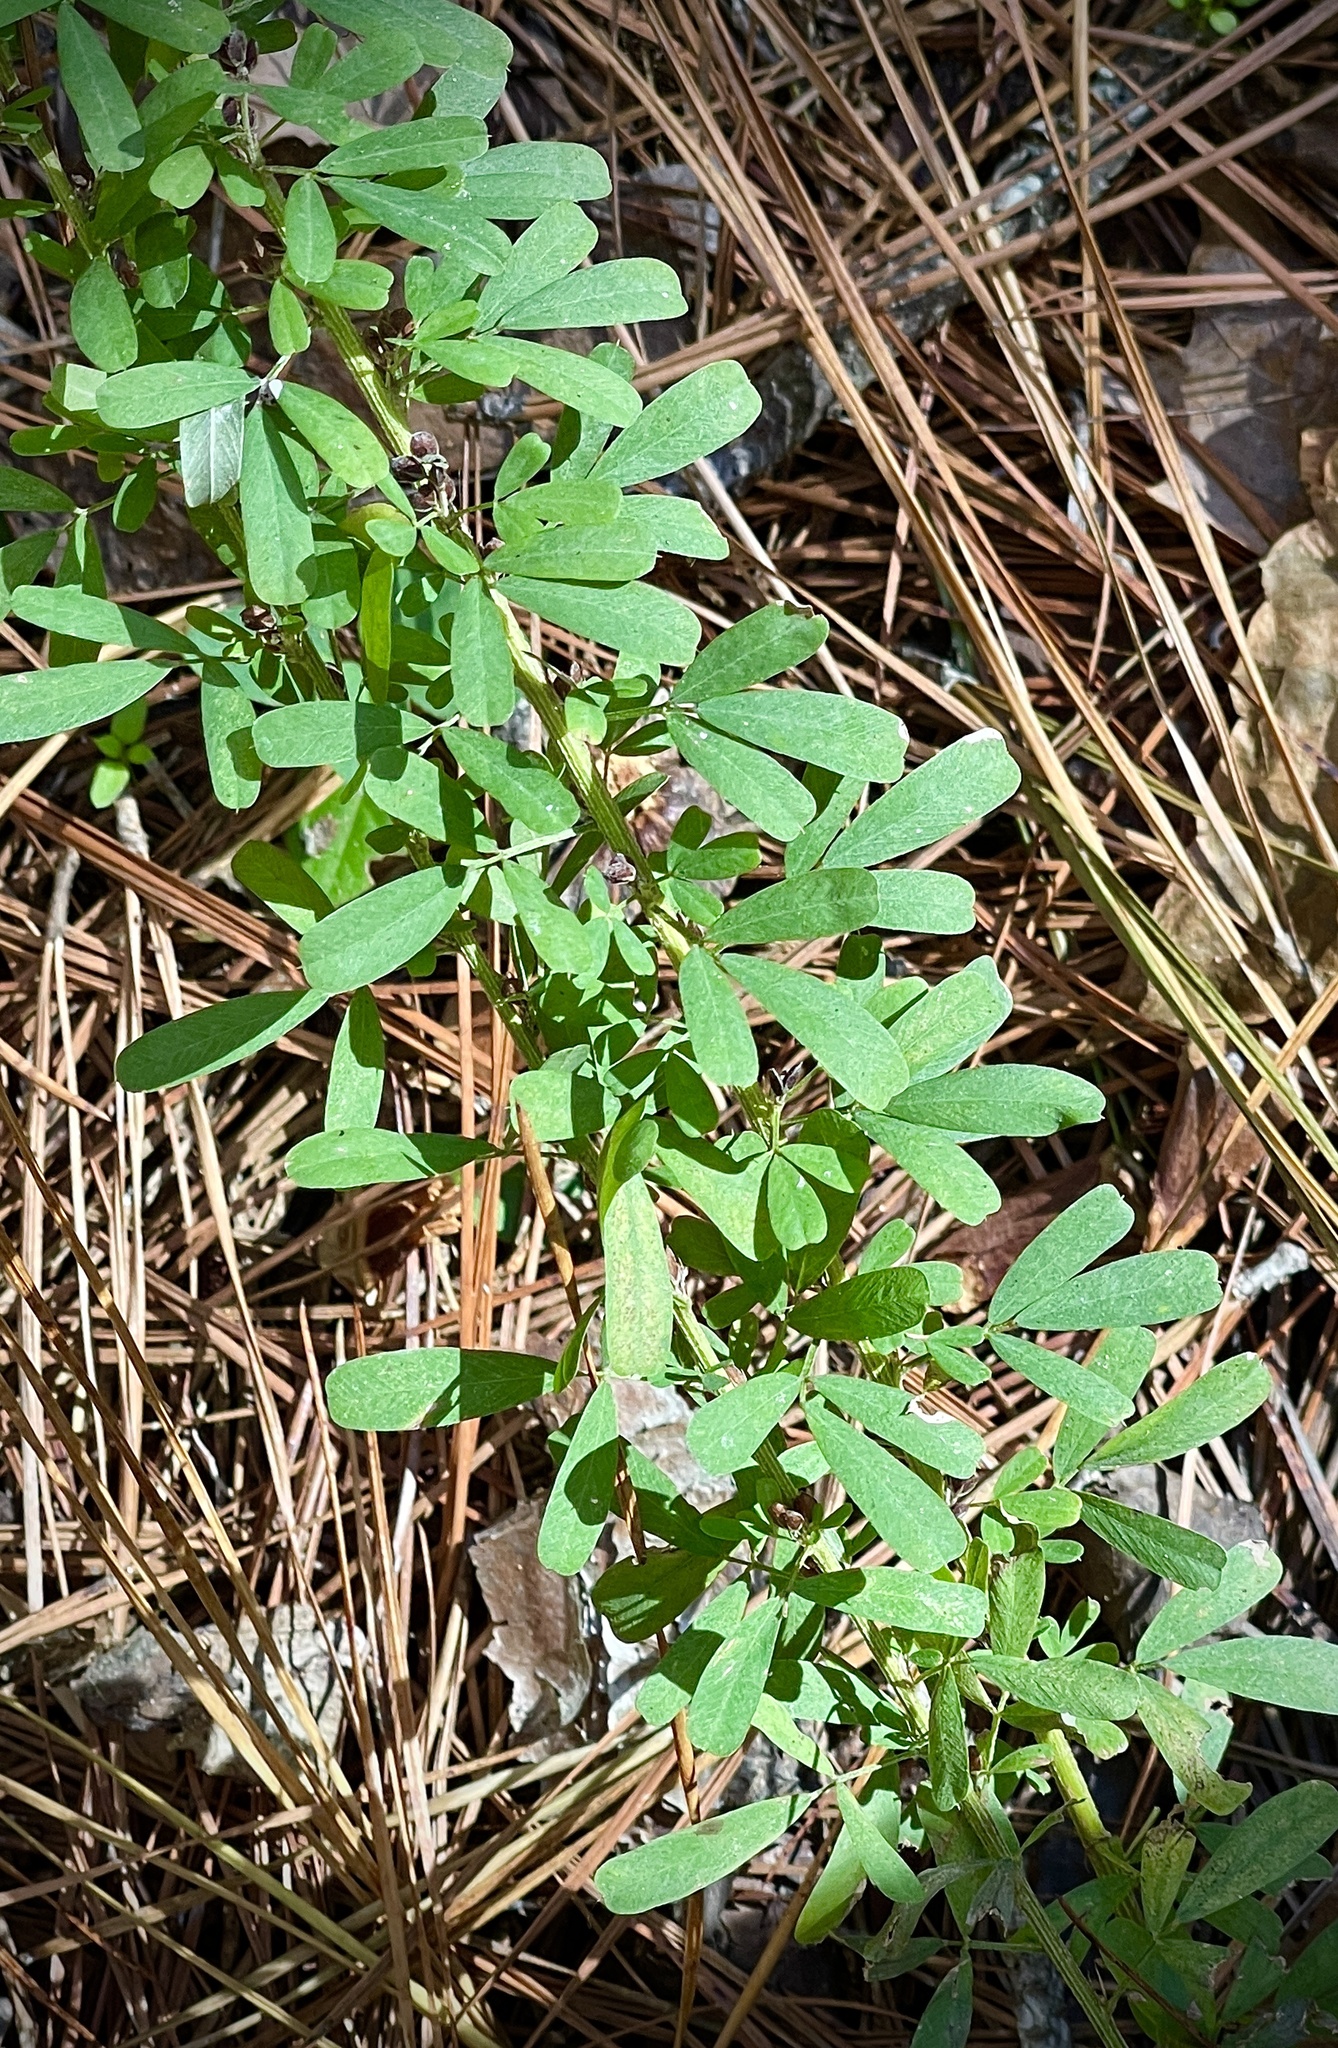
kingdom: Plantae
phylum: Tracheophyta
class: Magnoliopsida
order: Fabales
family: Fabaceae
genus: Lespedeza
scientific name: Lespedeza cuneata
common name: Chinese bush-clover
